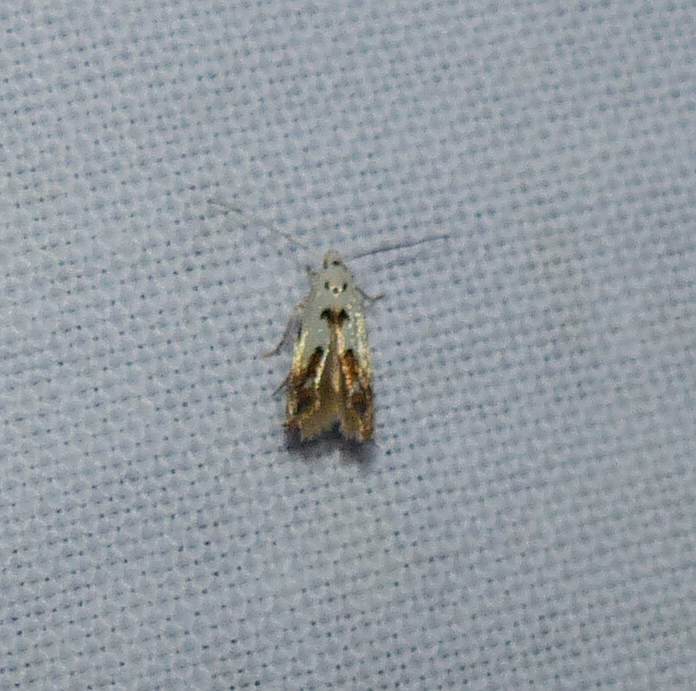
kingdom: Animalia
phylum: Arthropoda
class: Insecta
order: Lepidoptera
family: Momphidae
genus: Mompha
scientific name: Mompha eloisella
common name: Red-streaked mompha moth
